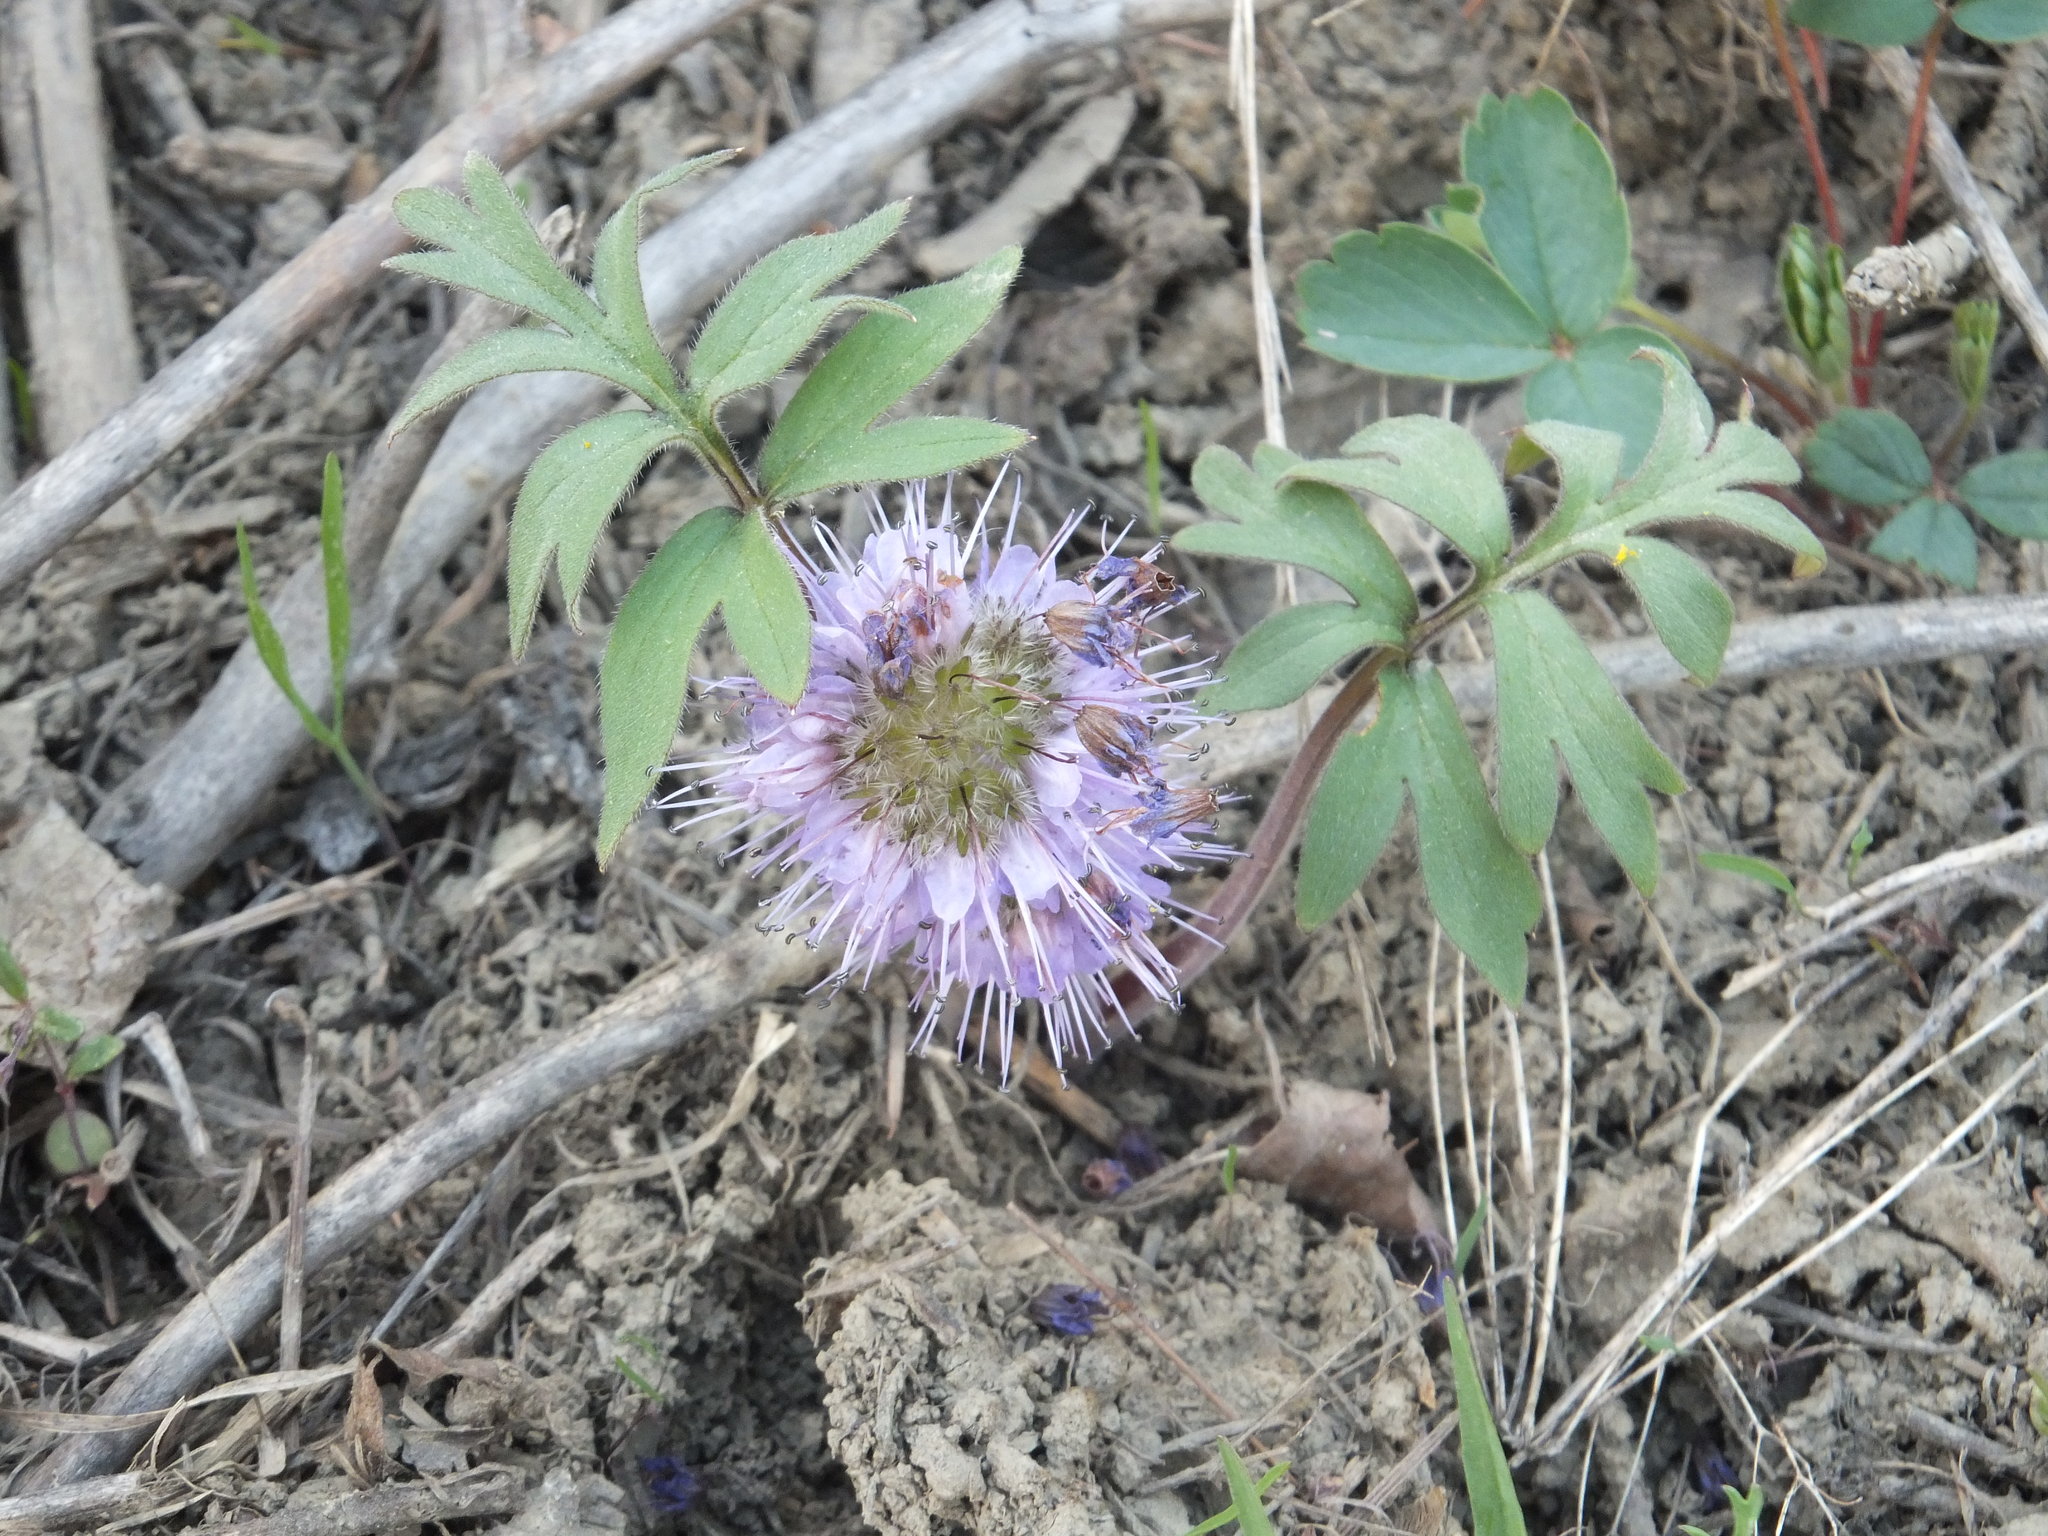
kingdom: Plantae
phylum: Tracheophyta
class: Magnoliopsida
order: Boraginales
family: Hydrophyllaceae
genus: Hydrophyllum
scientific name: Hydrophyllum capitatum
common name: Woollen-breeches
